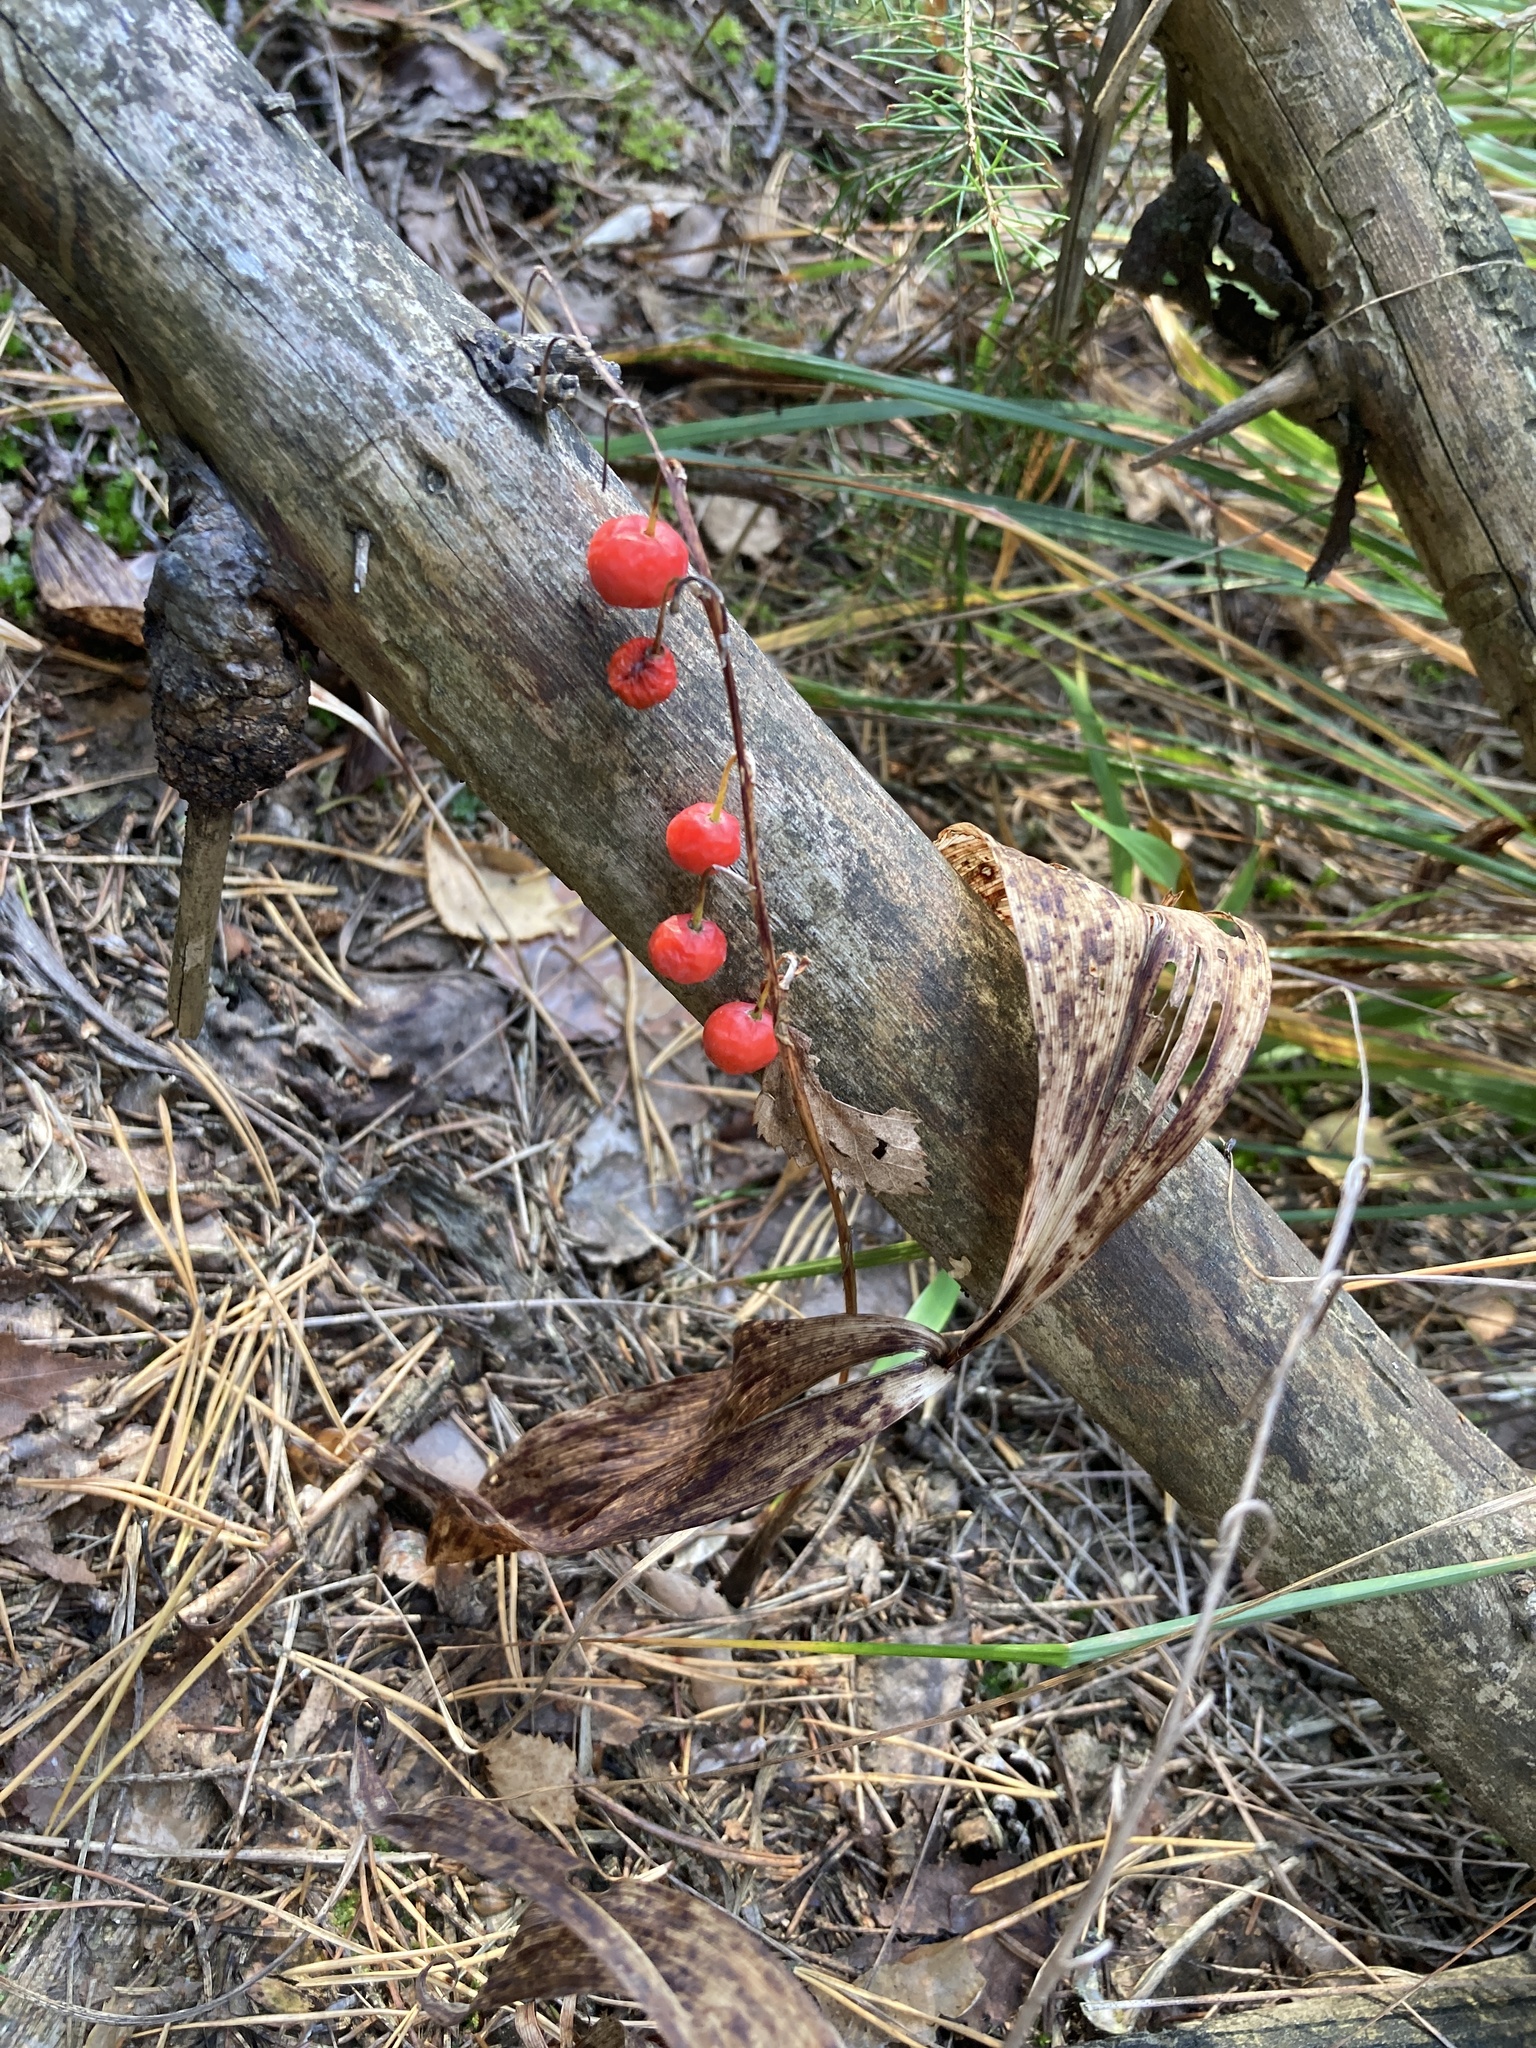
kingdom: Plantae
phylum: Tracheophyta
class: Liliopsida
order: Asparagales
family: Asparagaceae
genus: Convallaria
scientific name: Convallaria majalis
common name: Lily-of-the-valley
